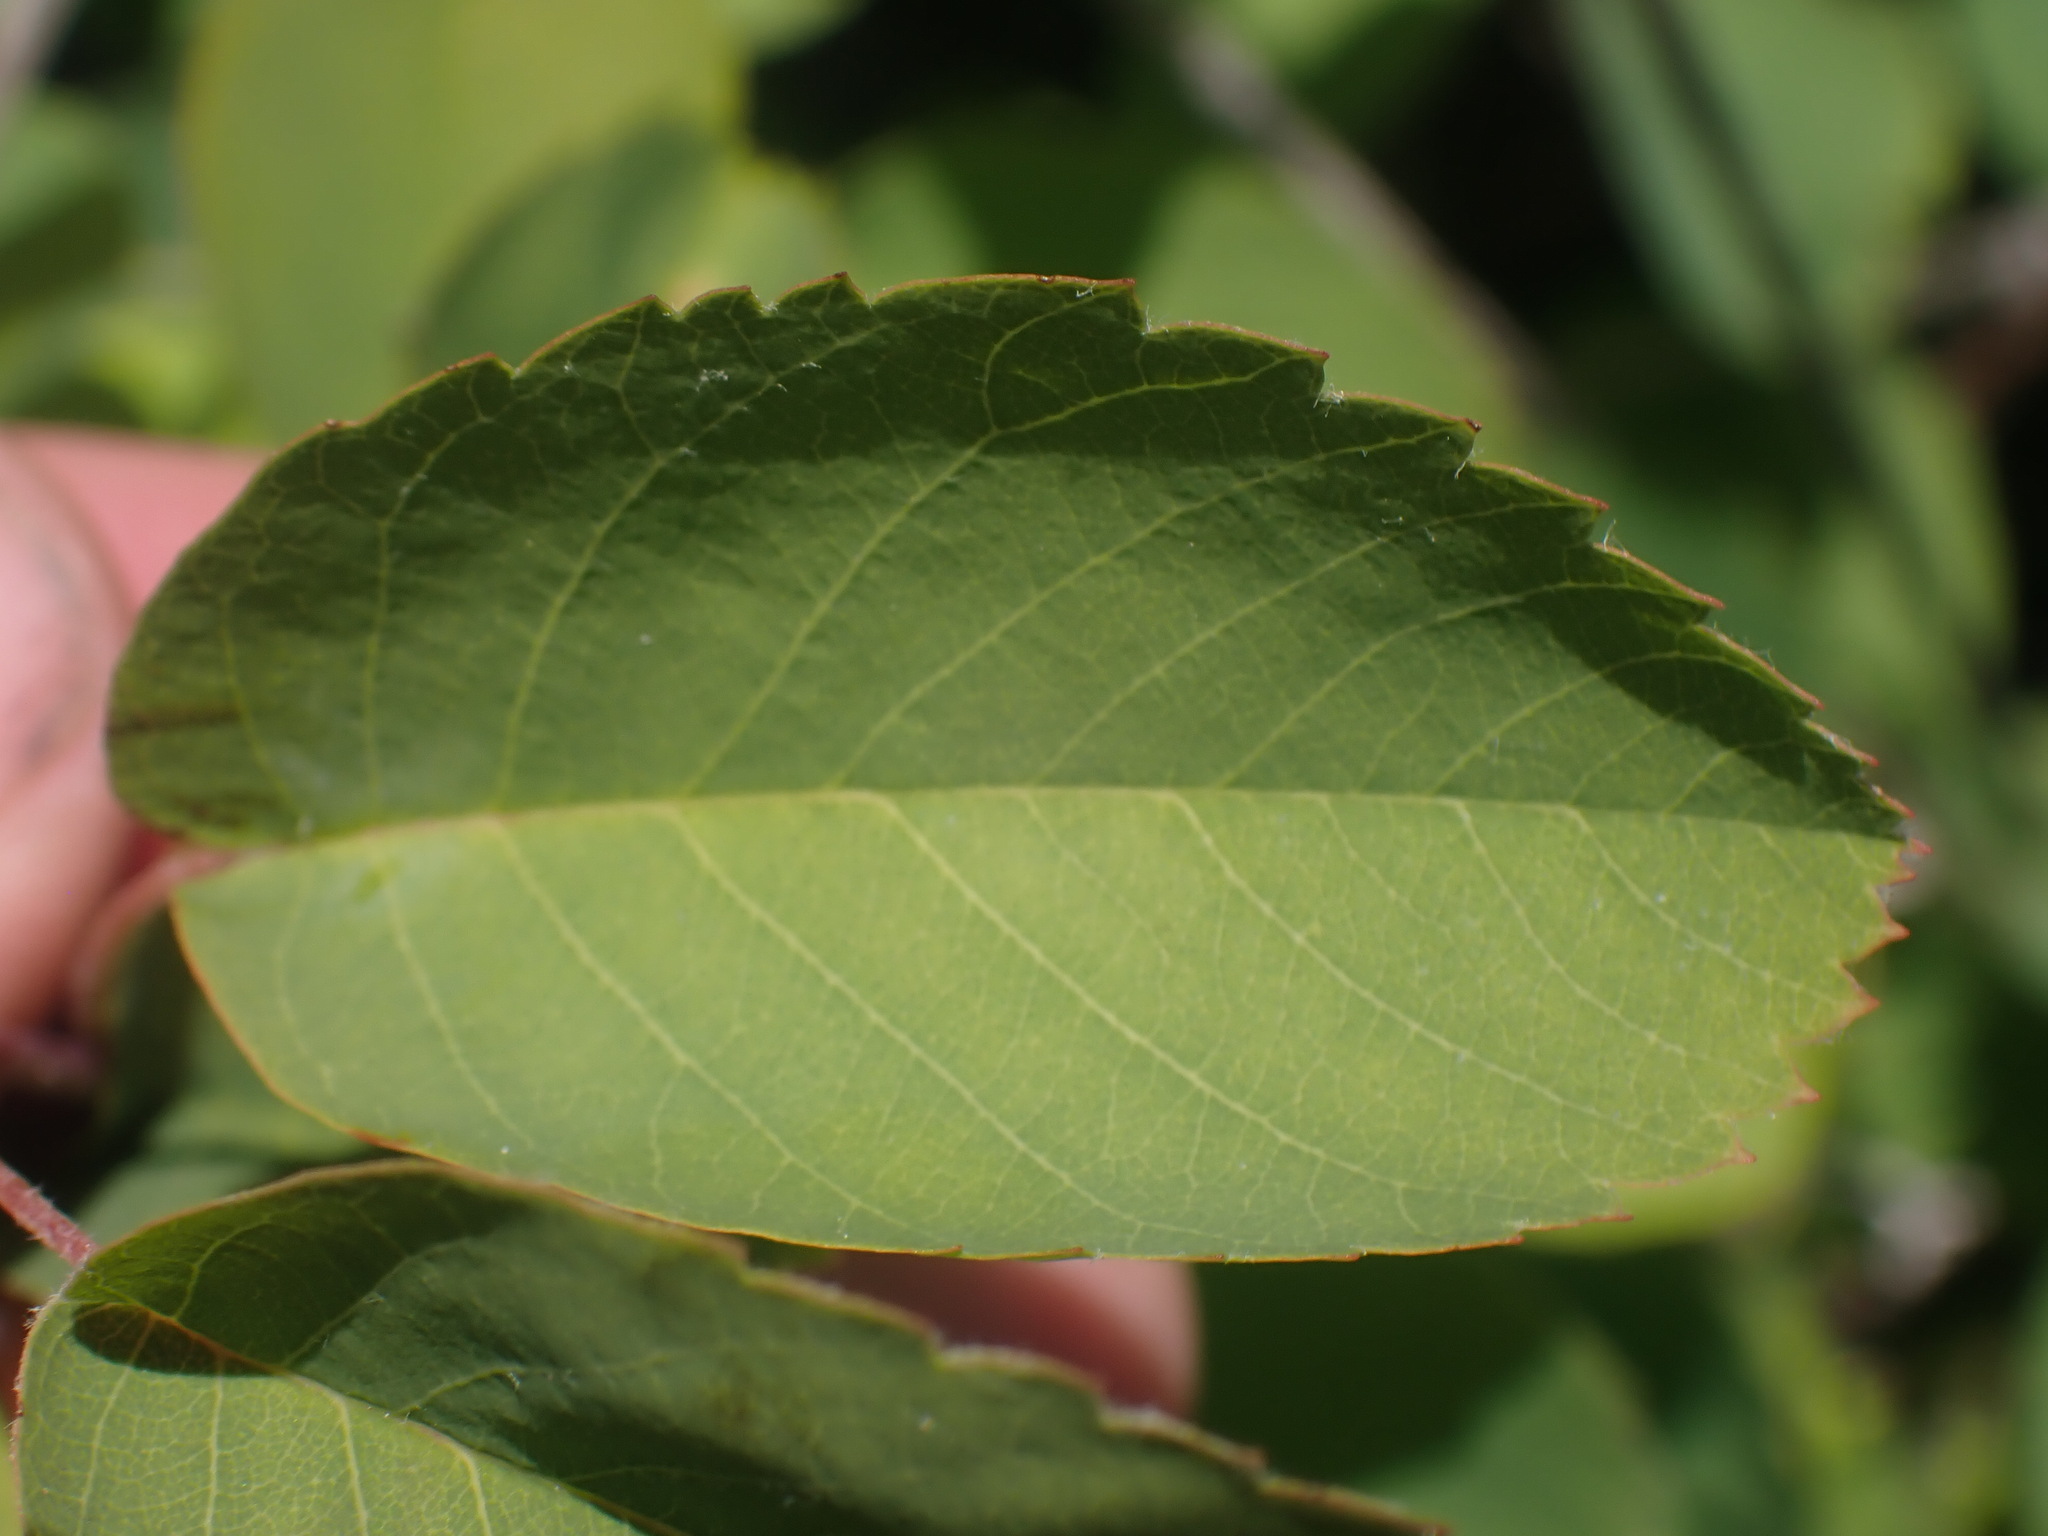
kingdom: Plantae
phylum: Tracheophyta
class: Magnoliopsida
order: Rosales
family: Rosaceae
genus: Amelanchier
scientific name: Amelanchier alnifolia
